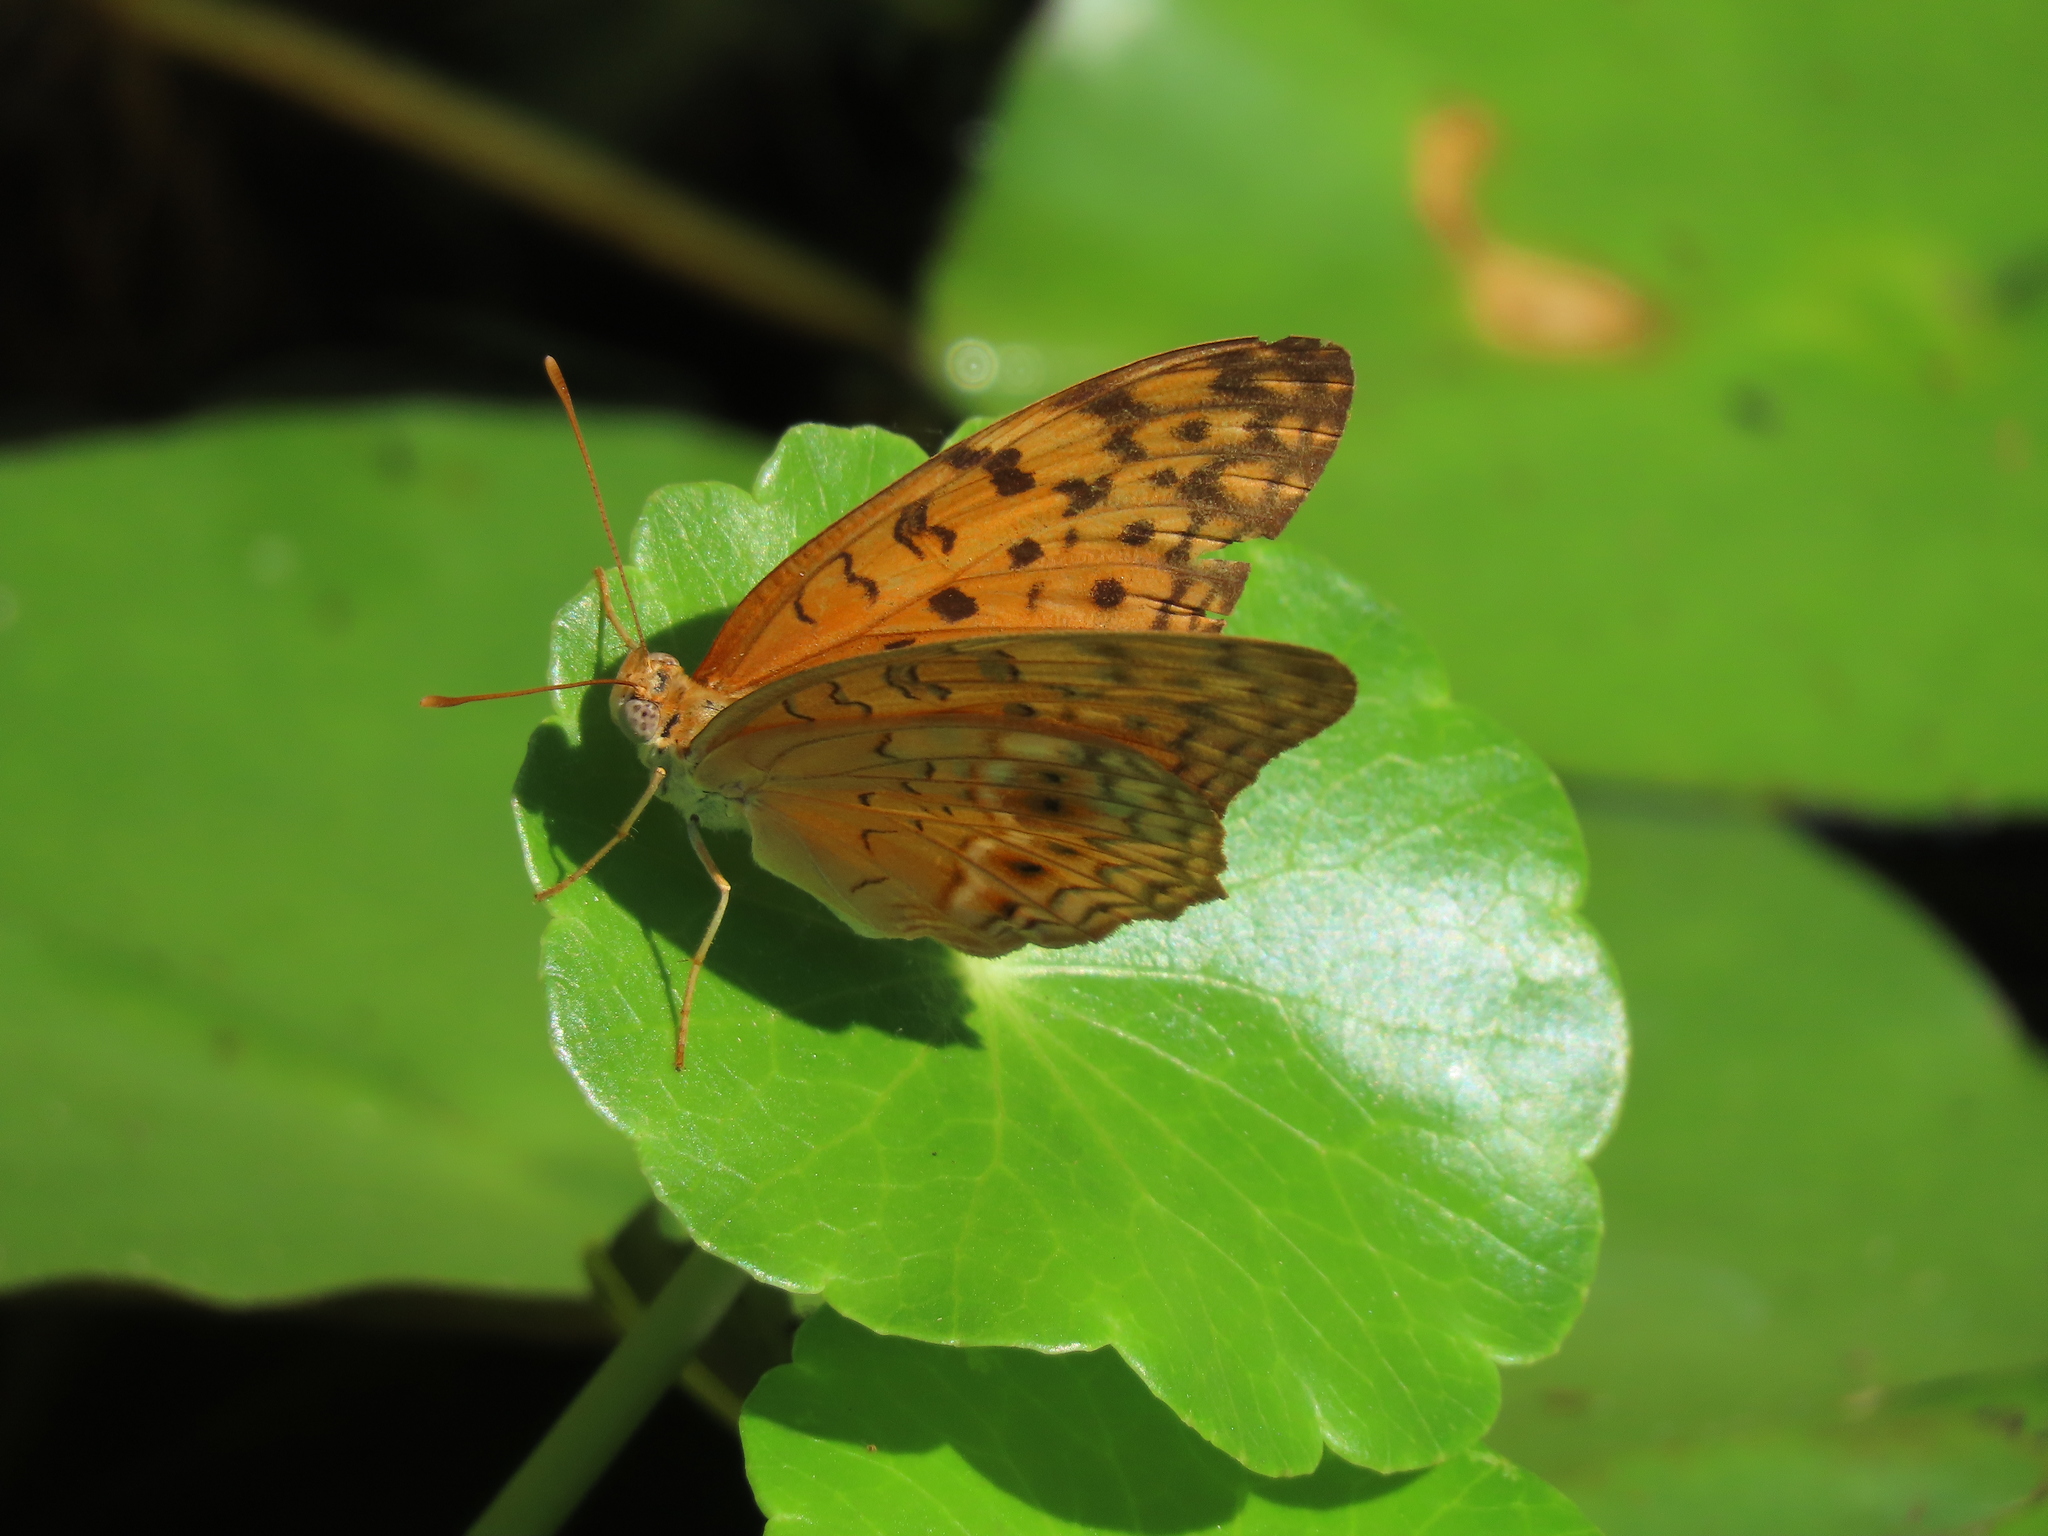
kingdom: Animalia
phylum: Arthropoda
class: Insecta
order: Lepidoptera
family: Nymphalidae
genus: Phalanta
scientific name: Phalanta phalantha
